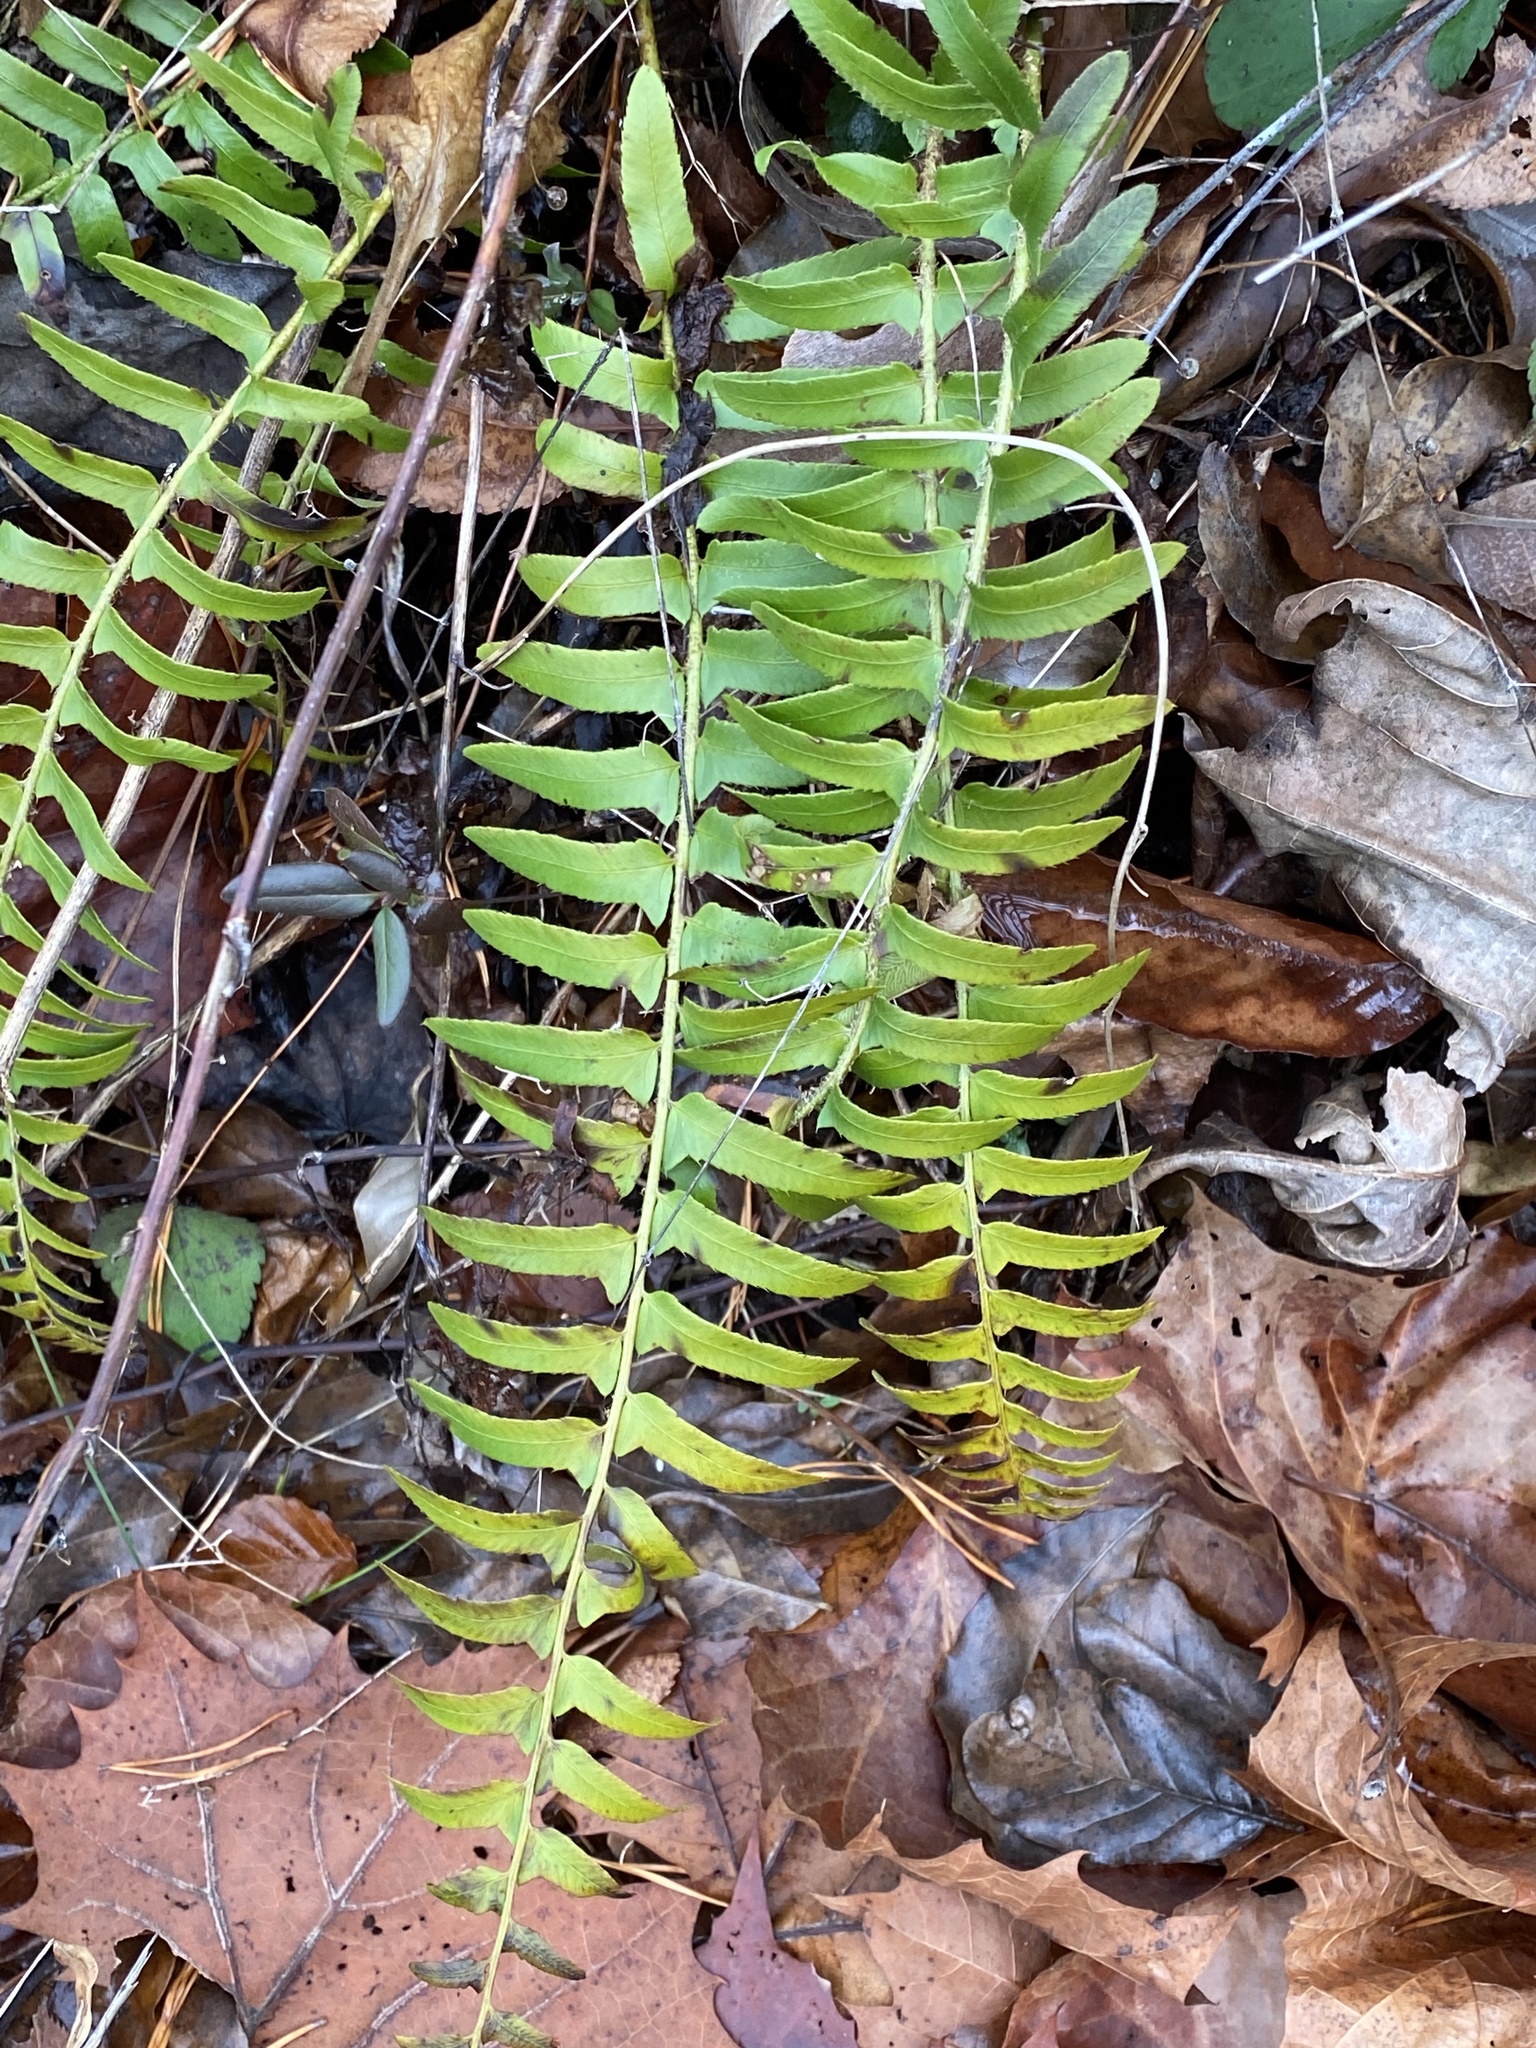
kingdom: Plantae
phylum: Tracheophyta
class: Polypodiopsida
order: Polypodiales
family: Dryopteridaceae
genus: Polystichum
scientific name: Polystichum acrostichoides
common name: Christmas fern
